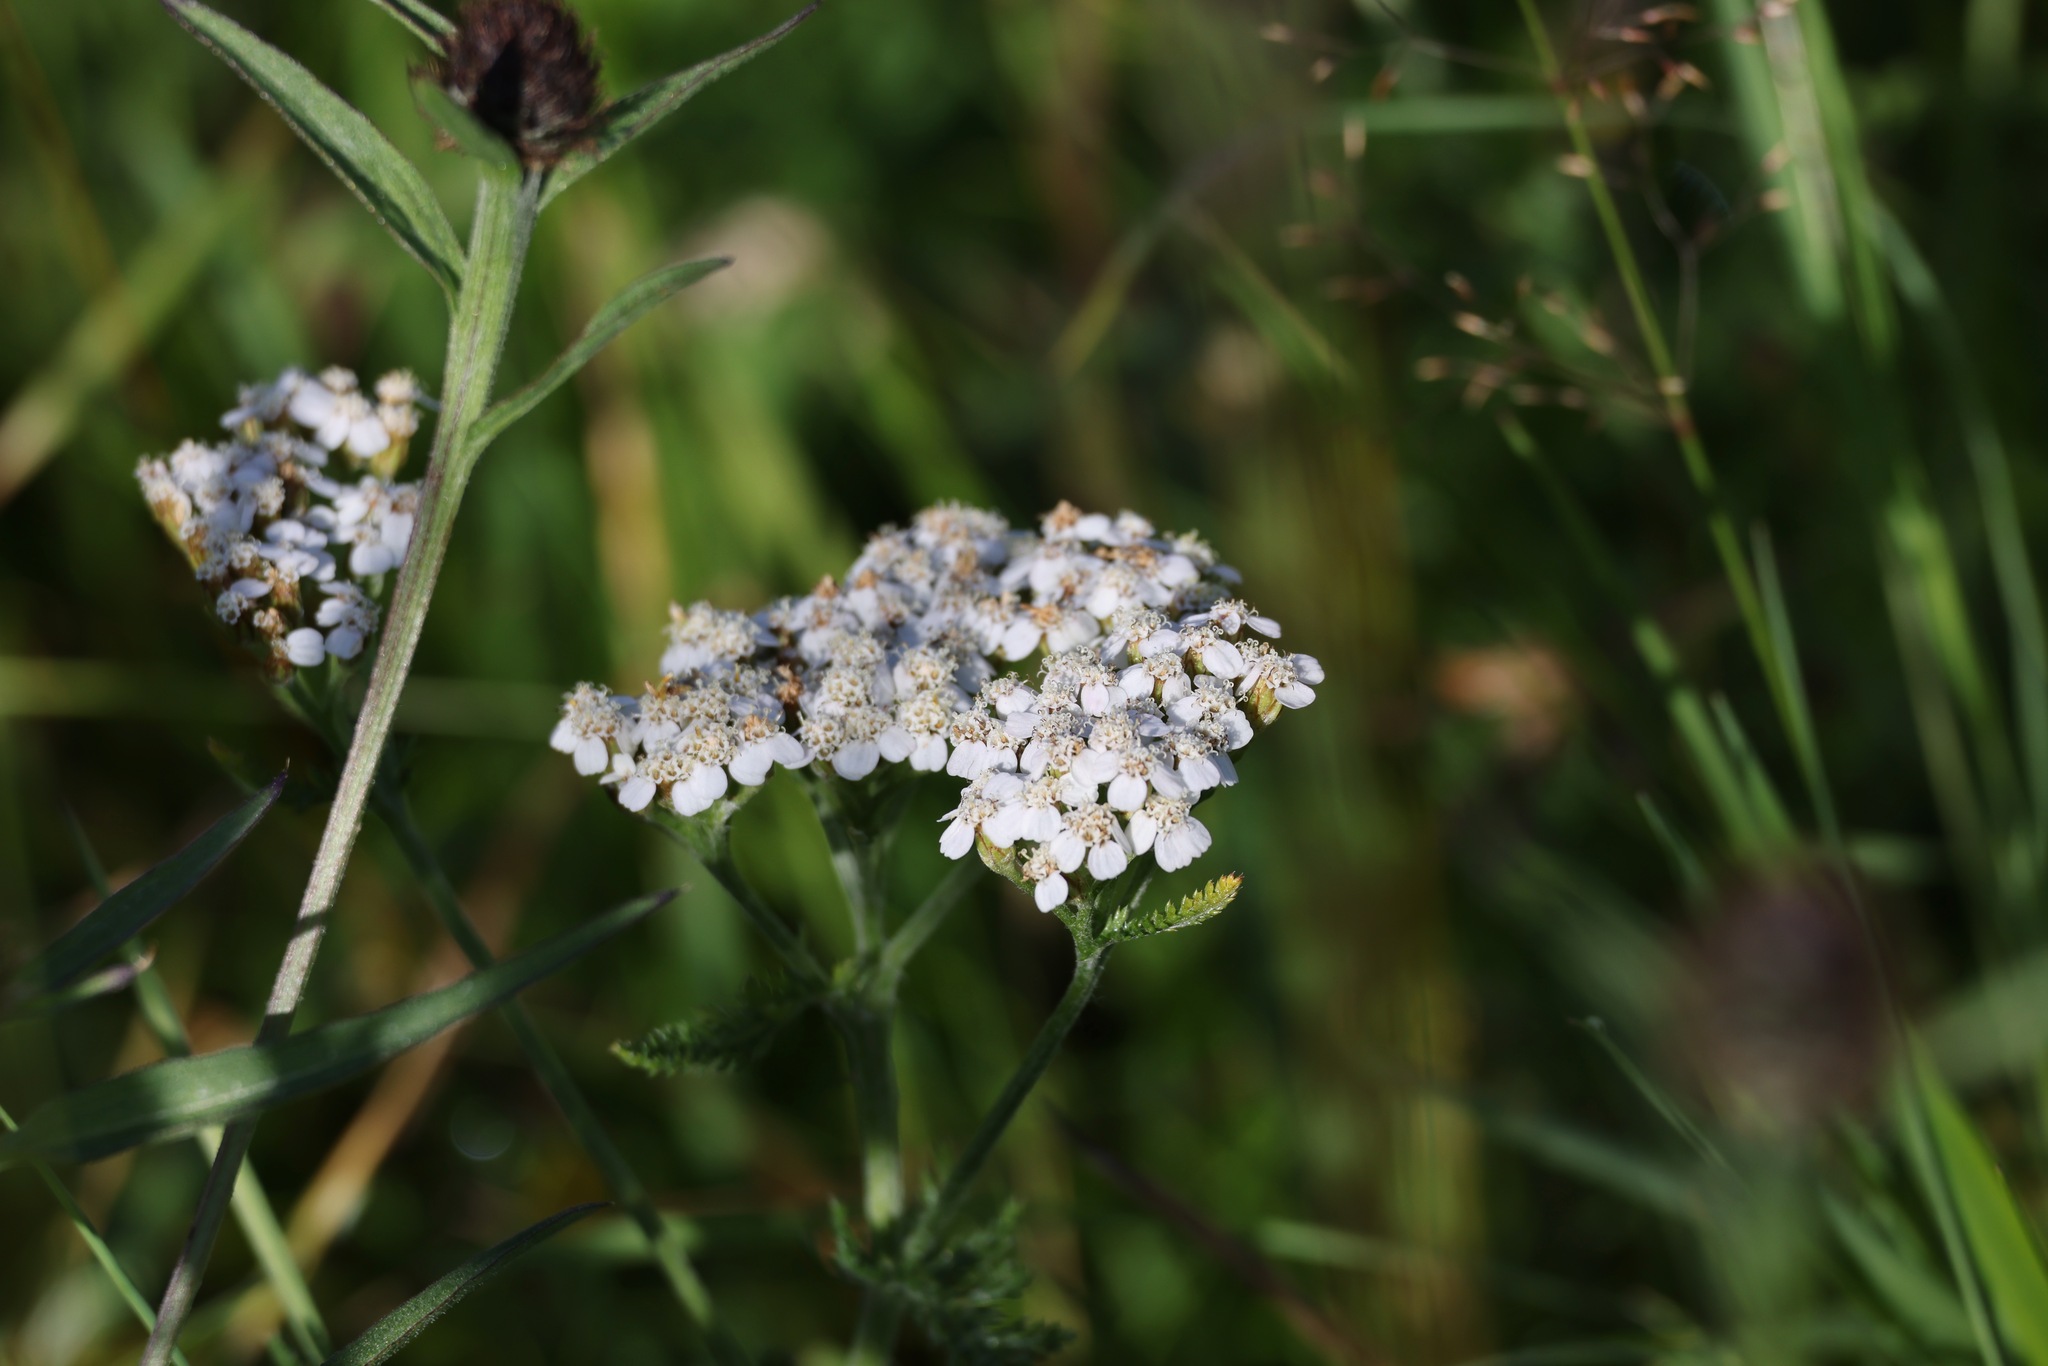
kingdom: Plantae
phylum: Tracheophyta
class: Magnoliopsida
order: Asterales
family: Asteraceae
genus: Achillea
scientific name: Achillea millefolium
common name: Yarrow
